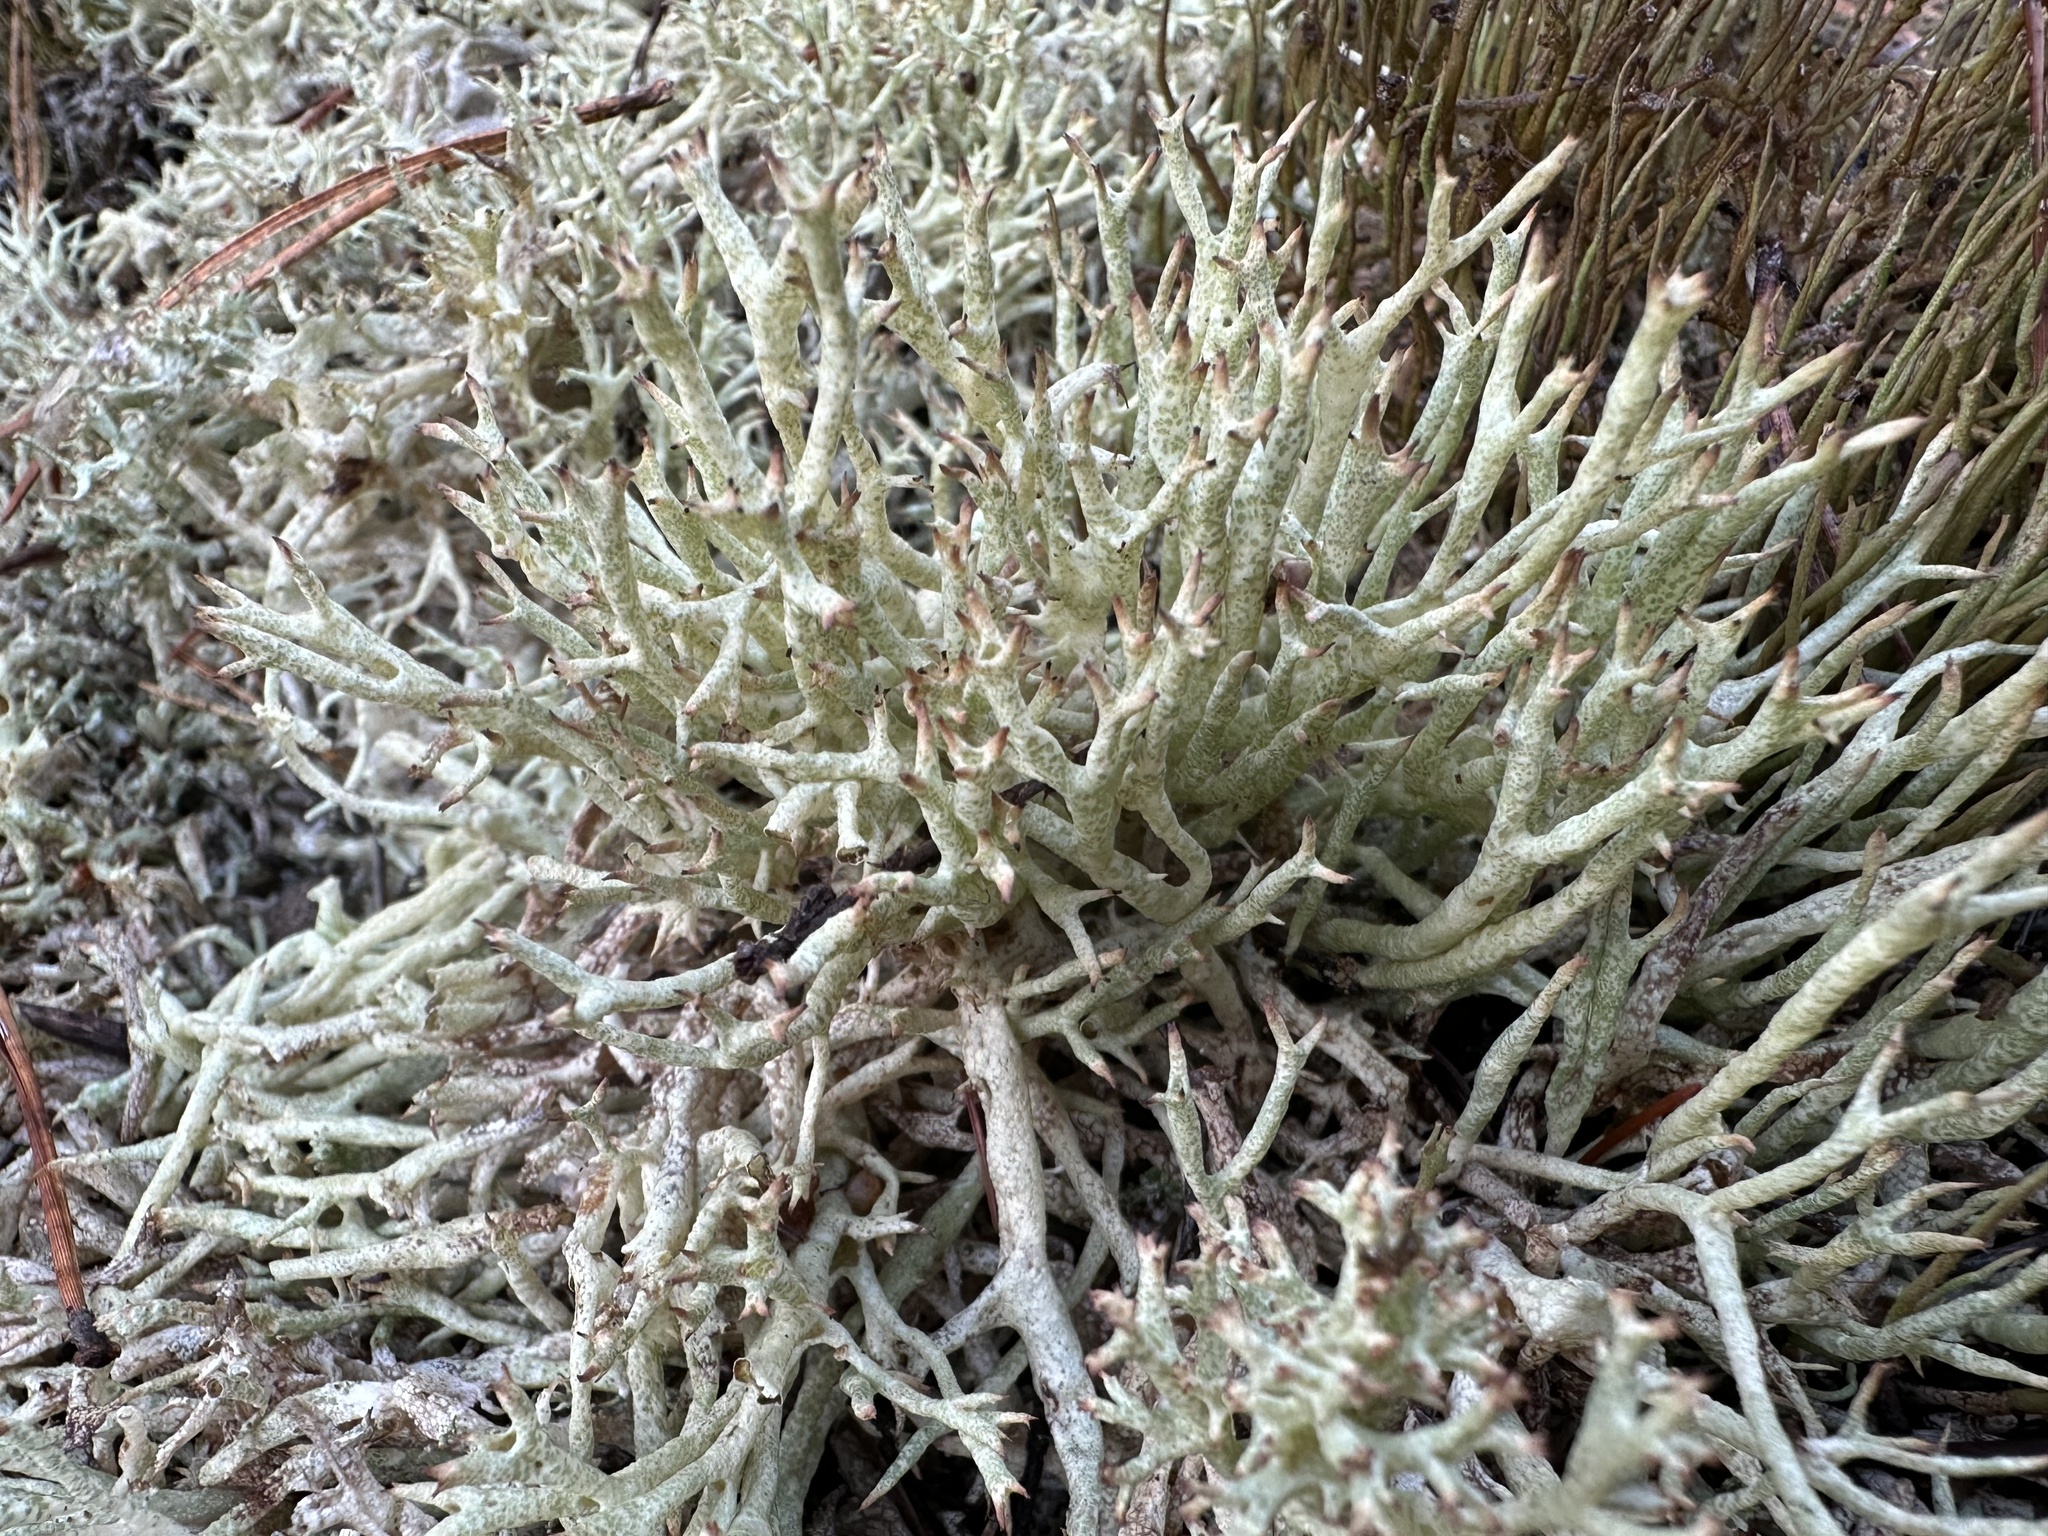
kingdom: Fungi
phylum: Ascomycota
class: Lecanoromycetes
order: Lecanorales
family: Cladoniaceae
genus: Cladonia
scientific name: Cladonia uncialis
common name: Thorn lichen
